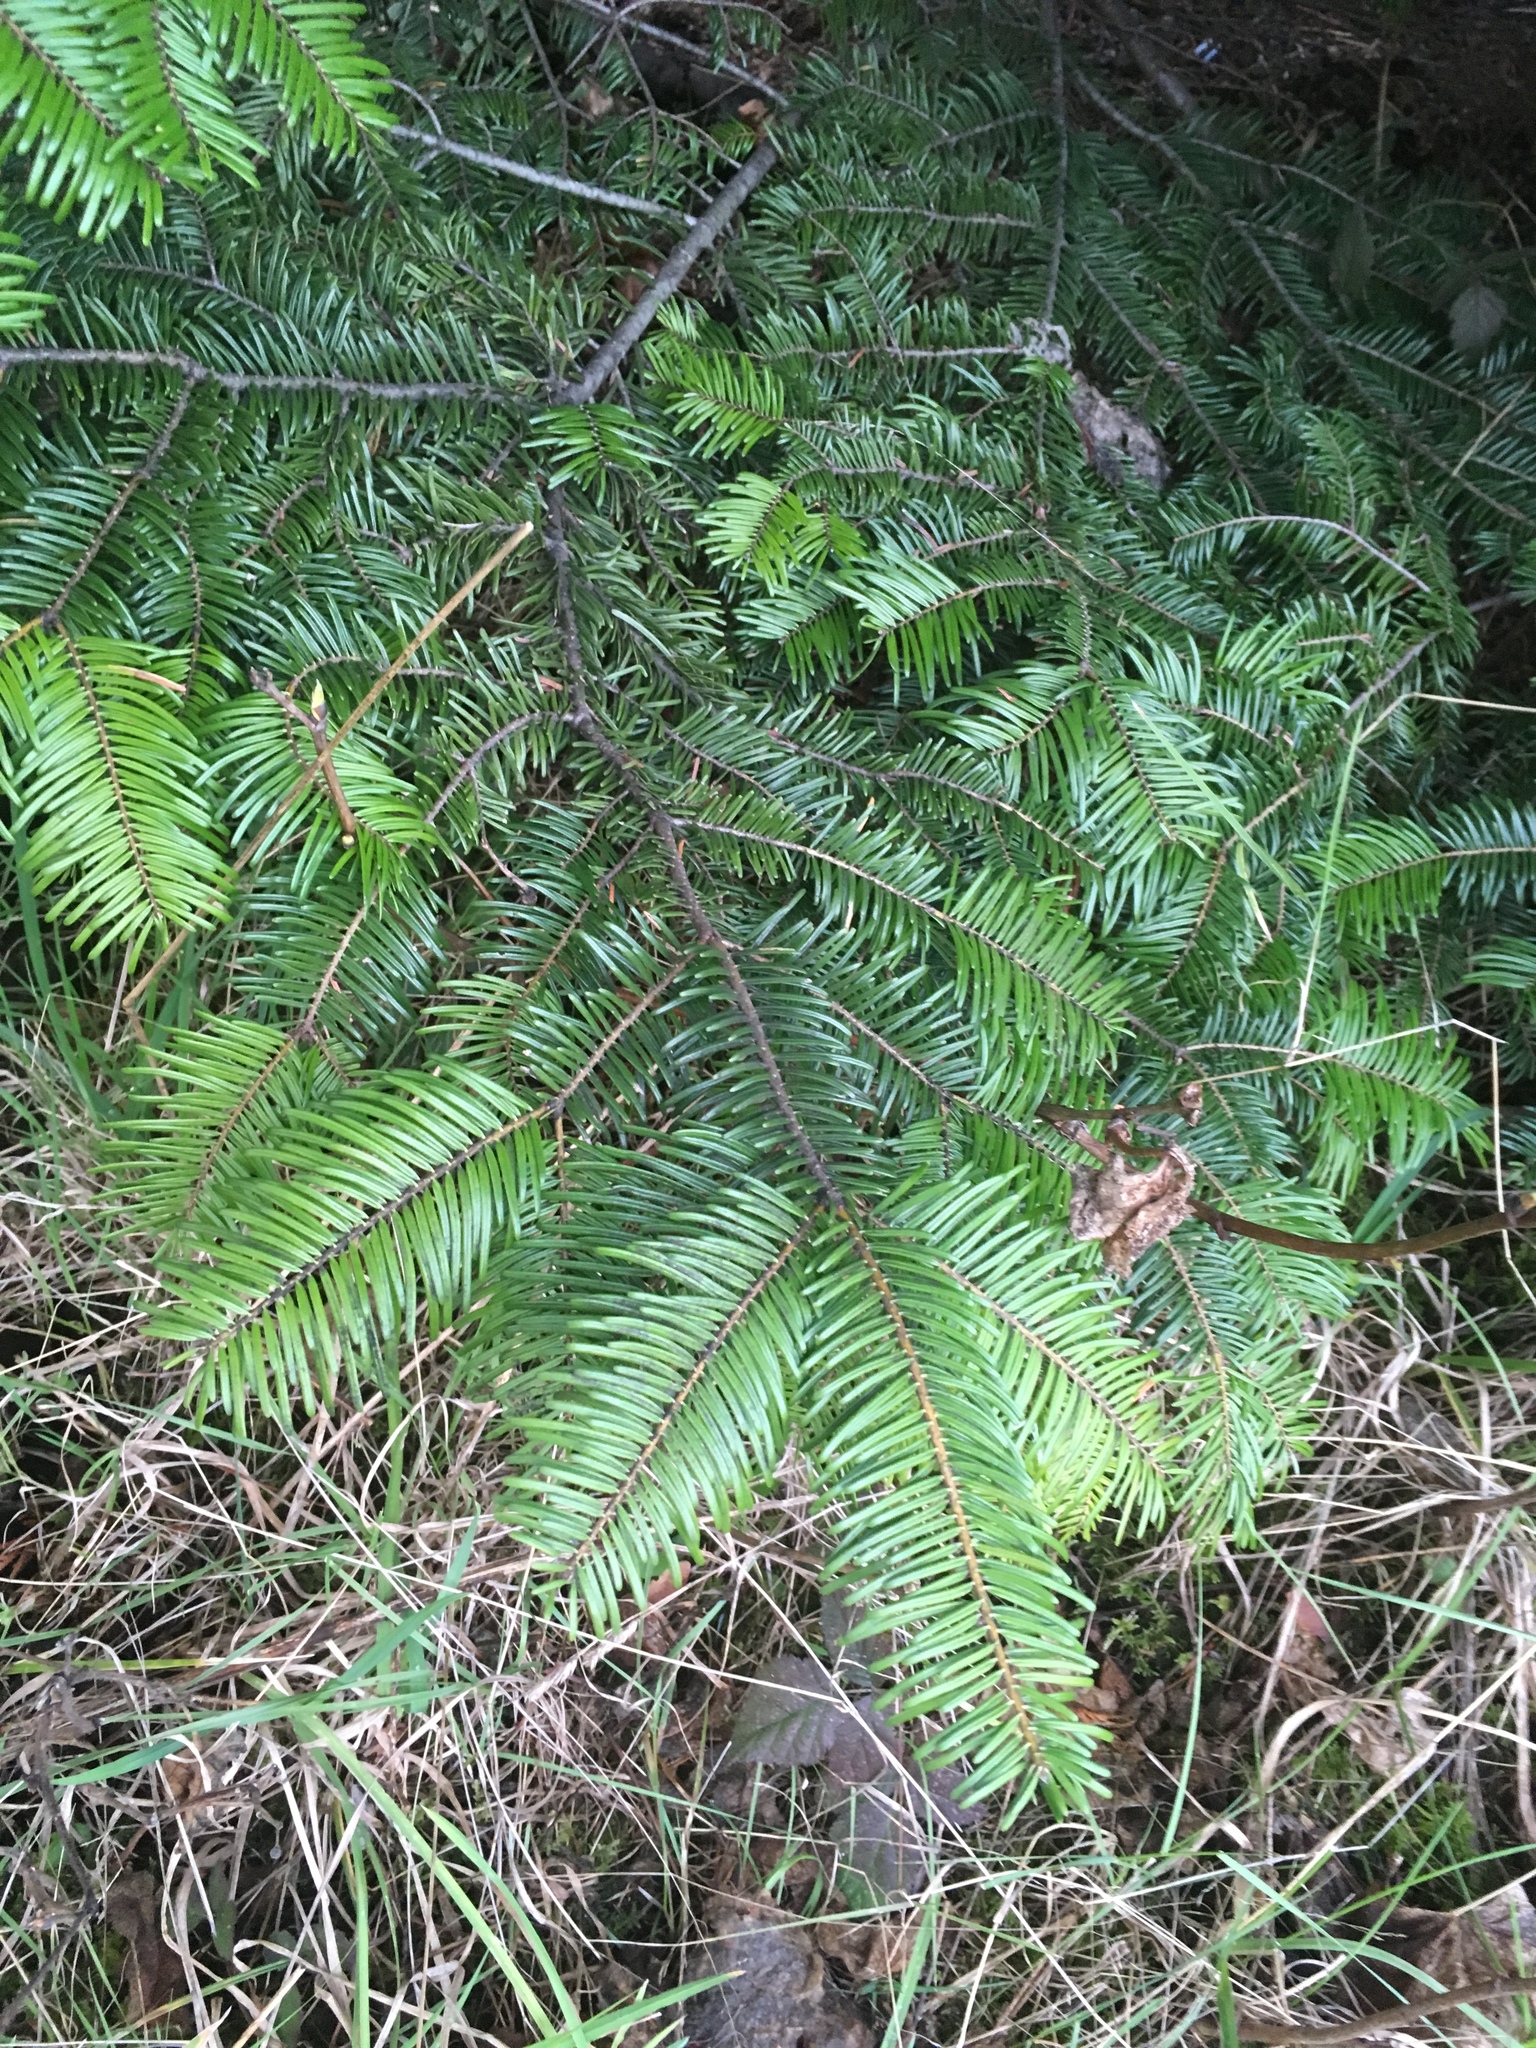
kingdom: Plantae
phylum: Tracheophyta
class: Pinopsida
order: Pinales
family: Pinaceae
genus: Abies
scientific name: Abies grandis
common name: Giant fir
